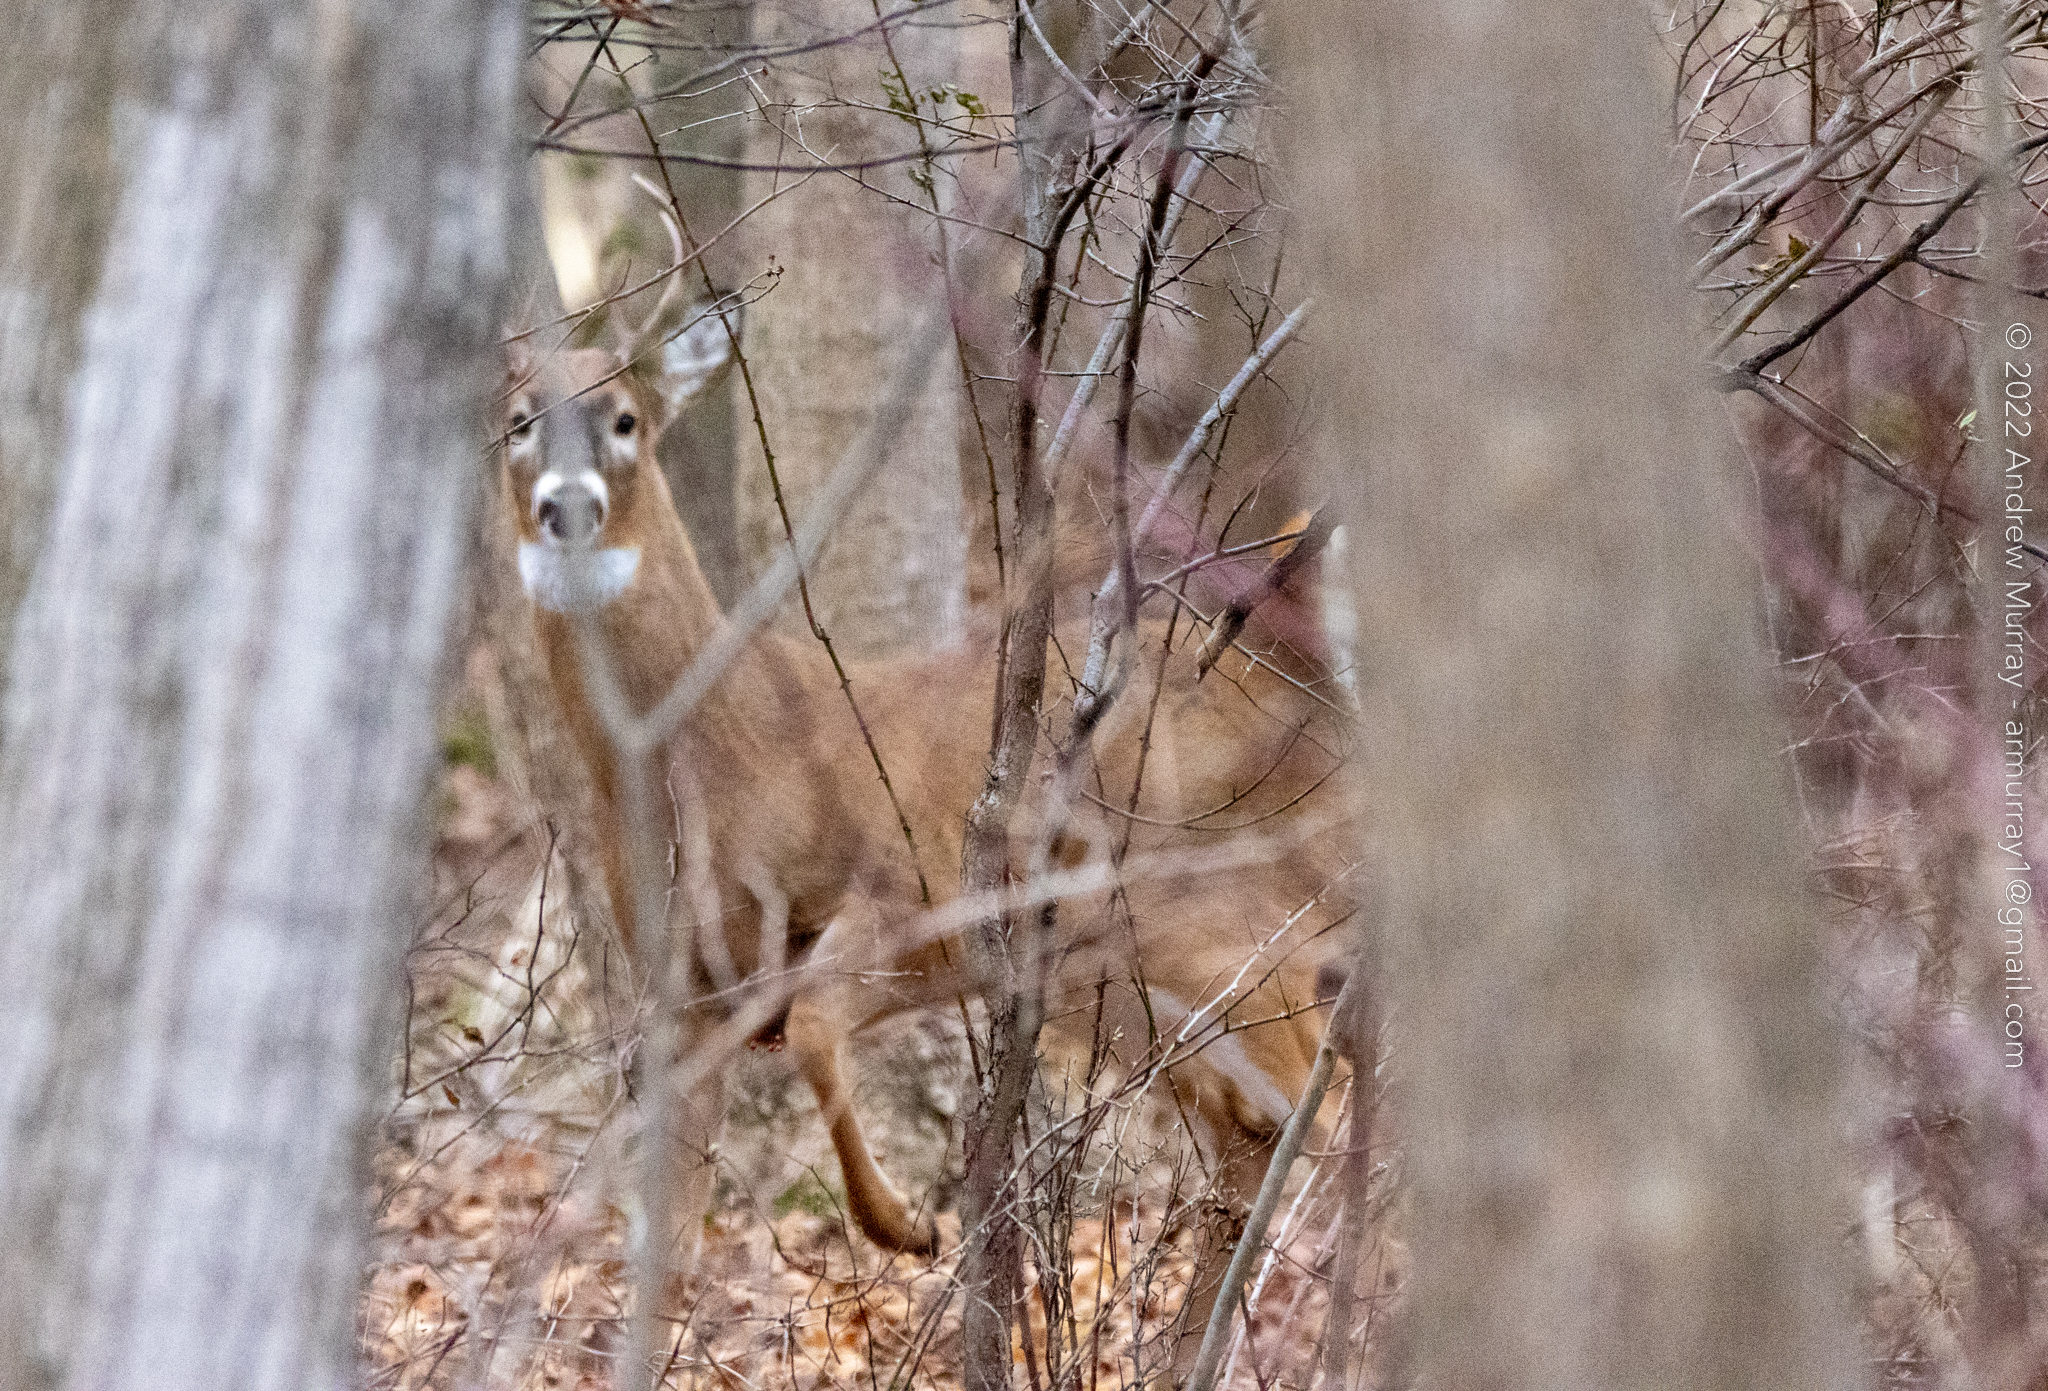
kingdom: Animalia
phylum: Chordata
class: Mammalia
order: Artiodactyla
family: Cervidae
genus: Odocoileus
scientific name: Odocoileus virginianus
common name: White-tailed deer
